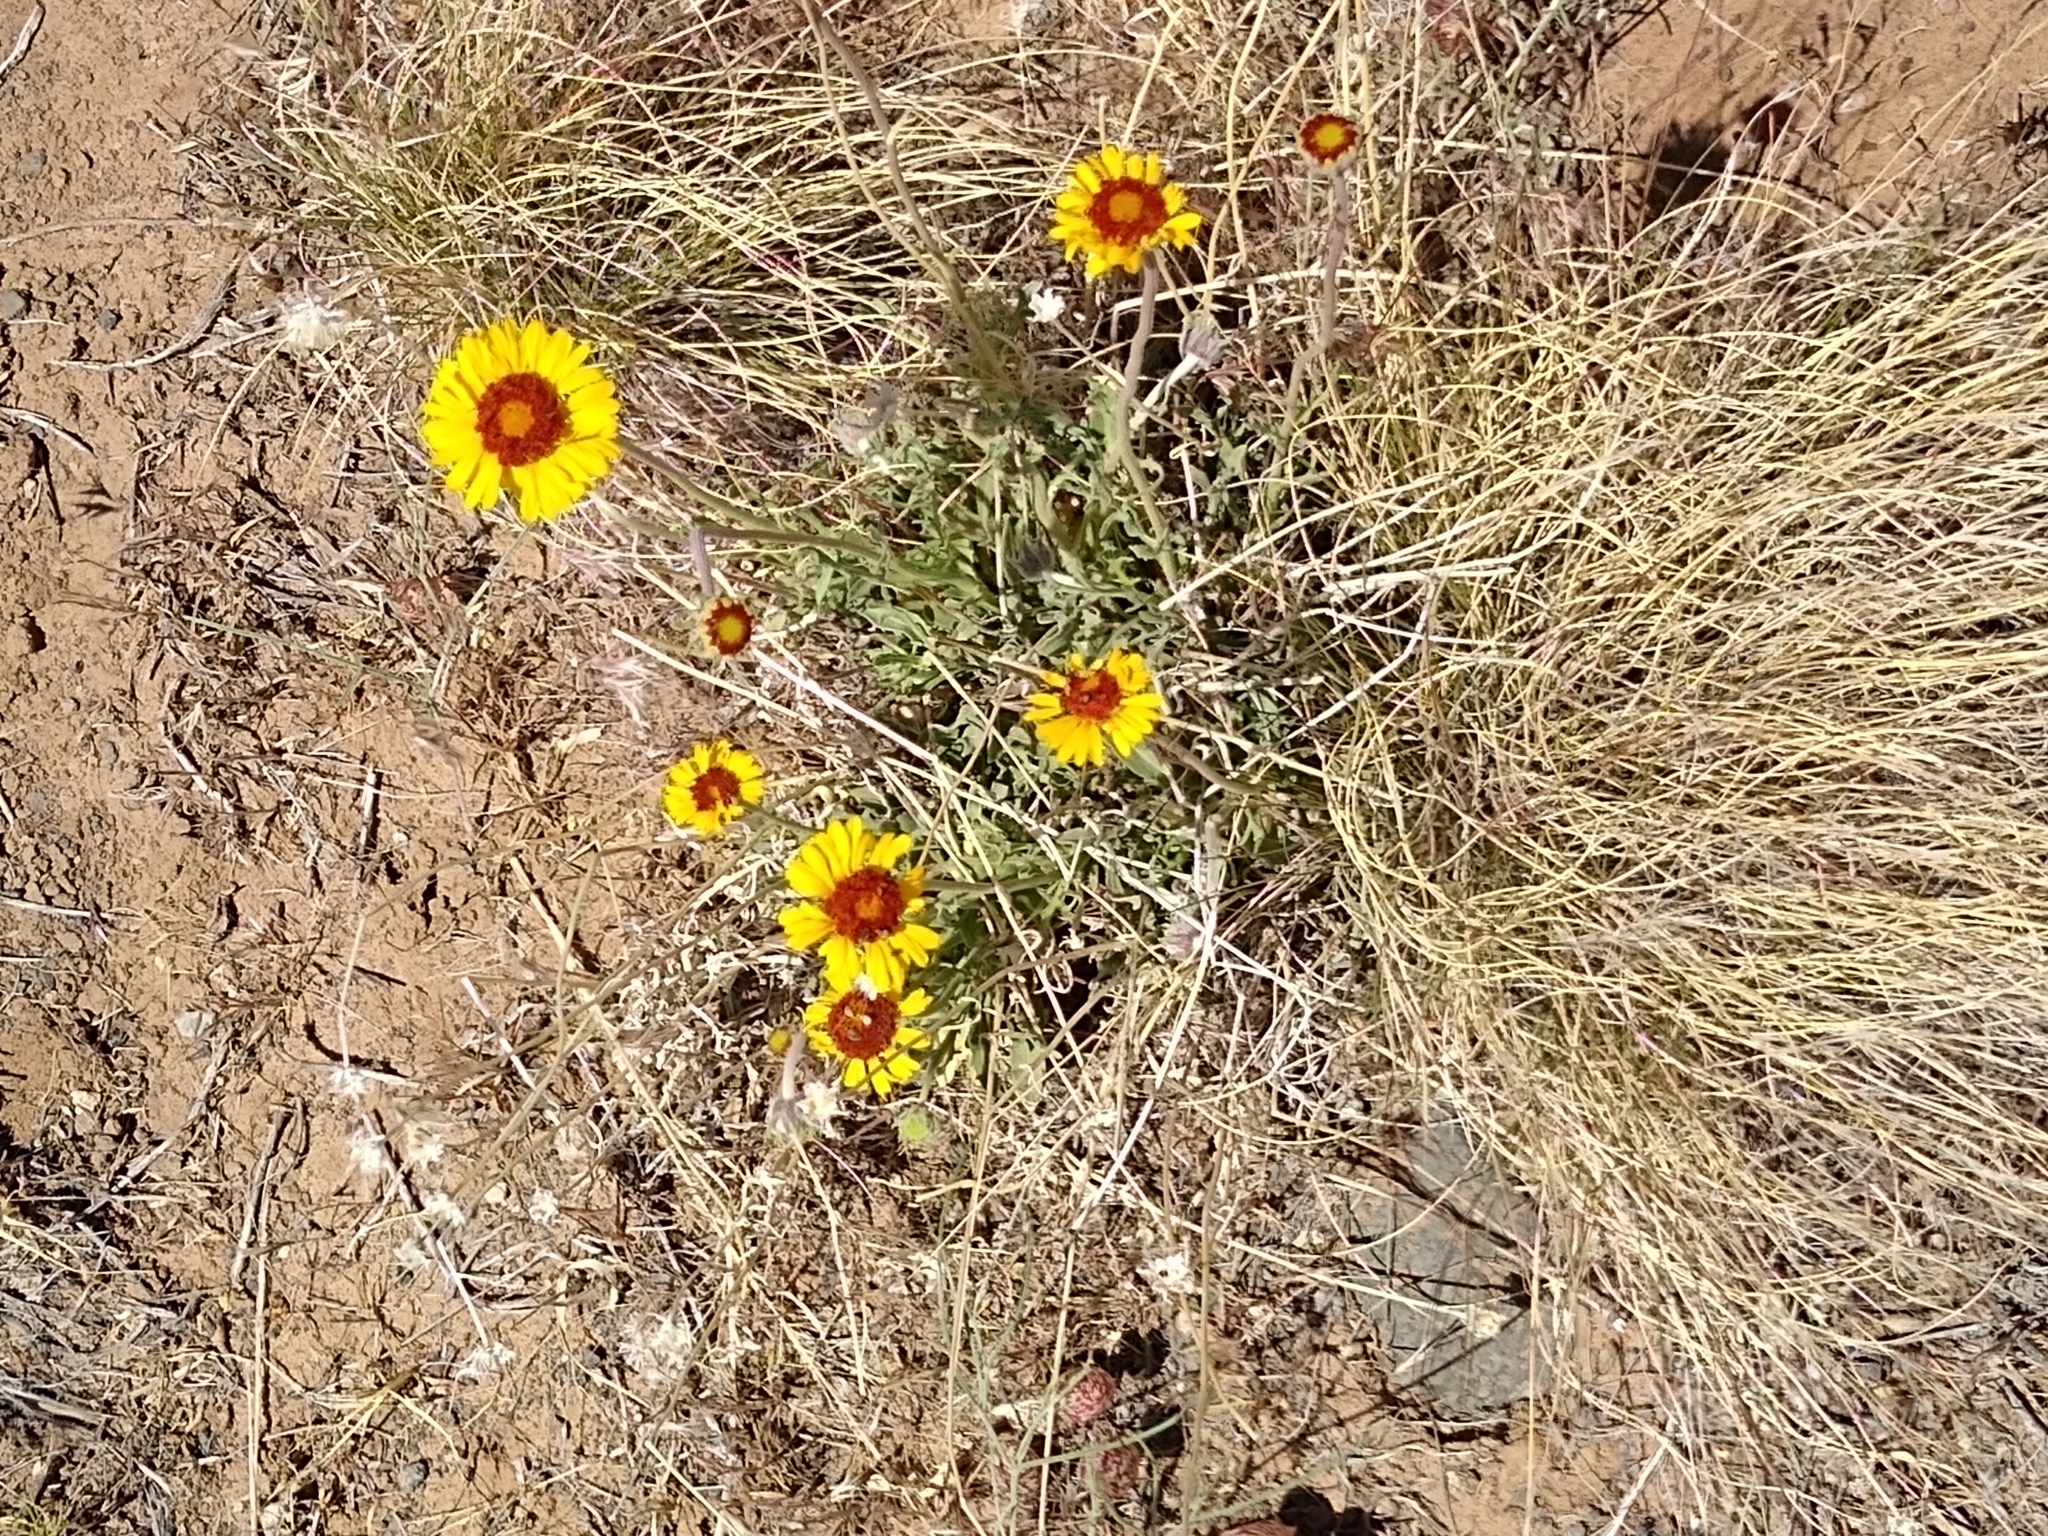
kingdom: Plantae
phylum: Tracheophyta
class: Magnoliopsida
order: Asterales
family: Asteraceae
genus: Gaillardia
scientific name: Gaillardia pinnatifida
